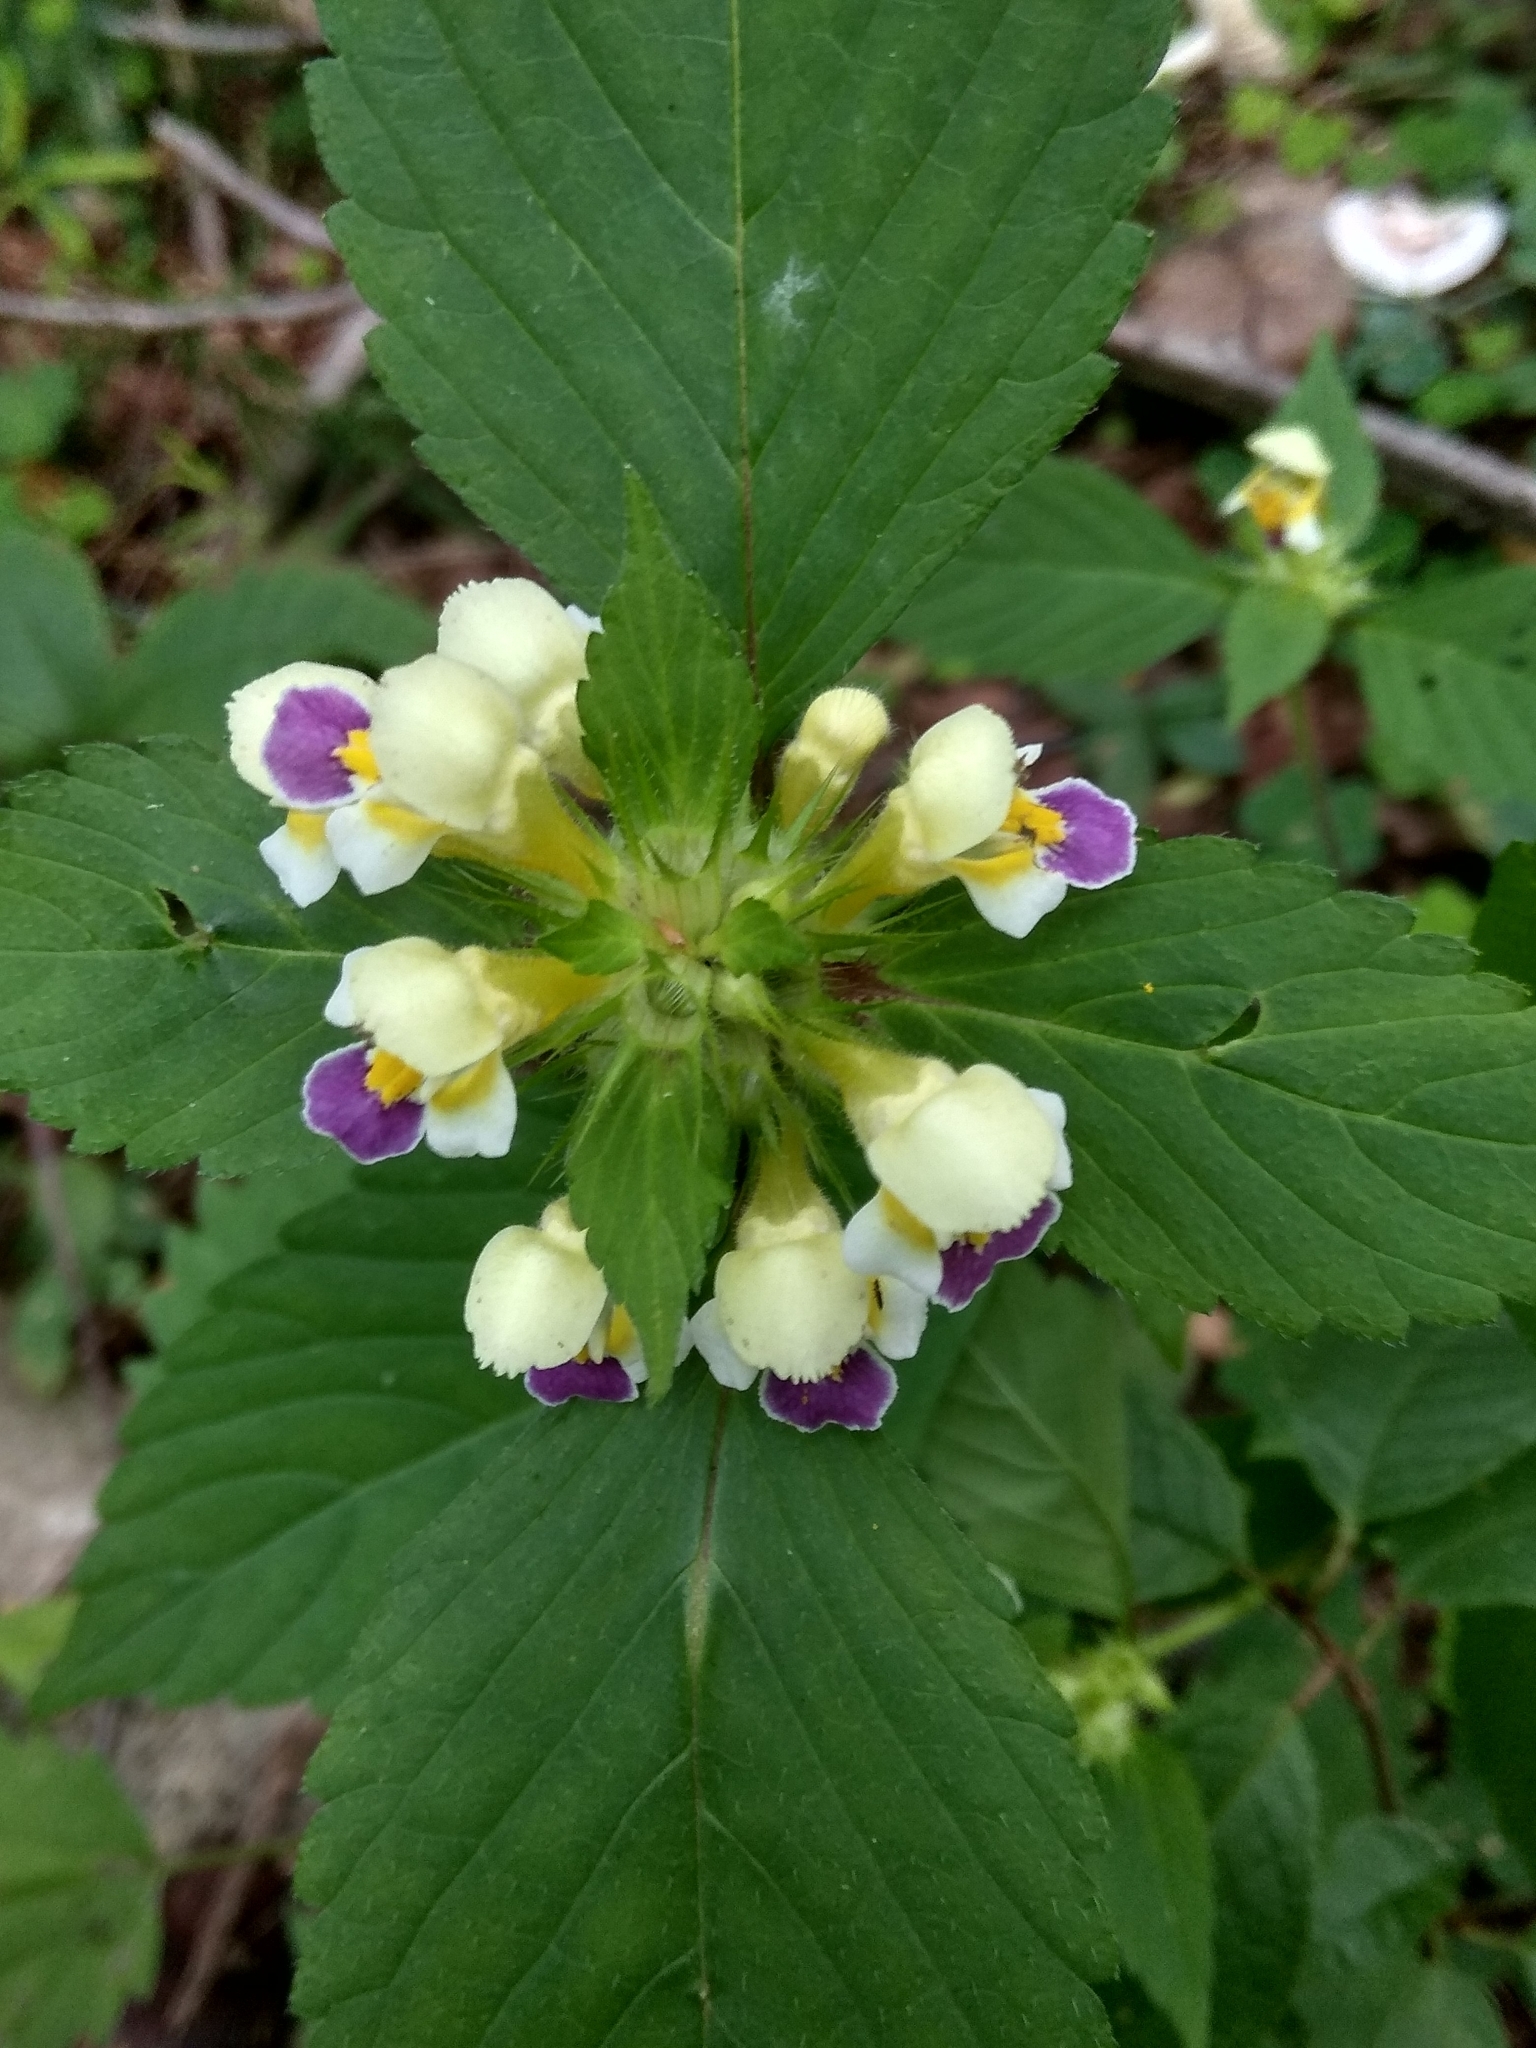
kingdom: Plantae
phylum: Tracheophyta
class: Magnoliopsida
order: Lamiales
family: Lamiaceae
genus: Galeopsis
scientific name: Galeopsis speciosa
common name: Large-flowered hemp-nettle
